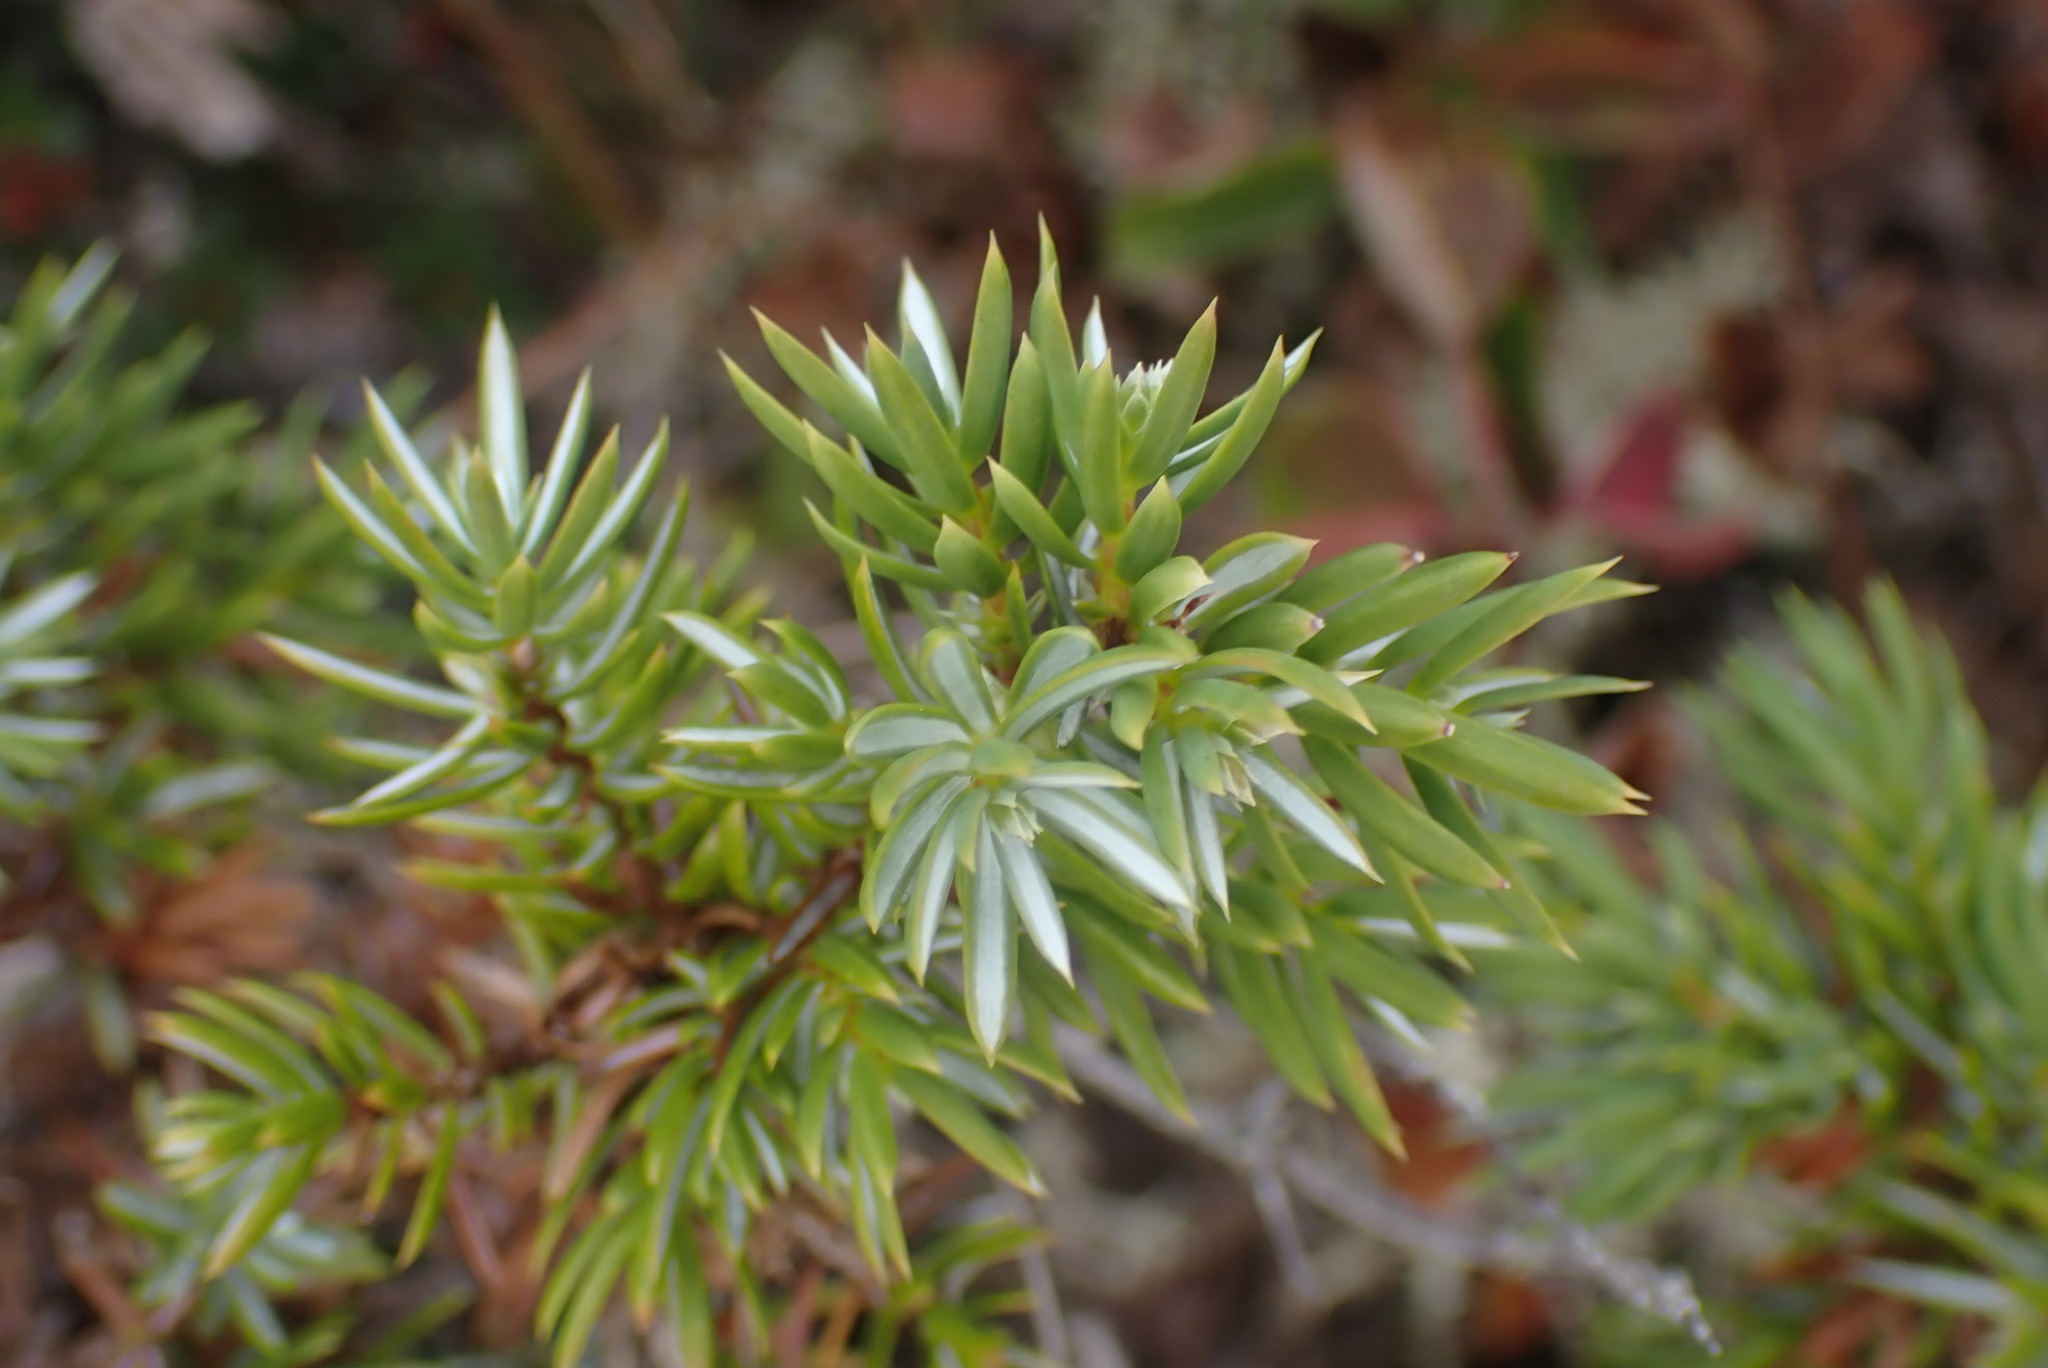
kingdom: Plantae
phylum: Tracheophyta
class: Pinopsida
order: Pinales
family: Cupressaceae
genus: Juniperus
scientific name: Juniperus communis
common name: Common juniper
